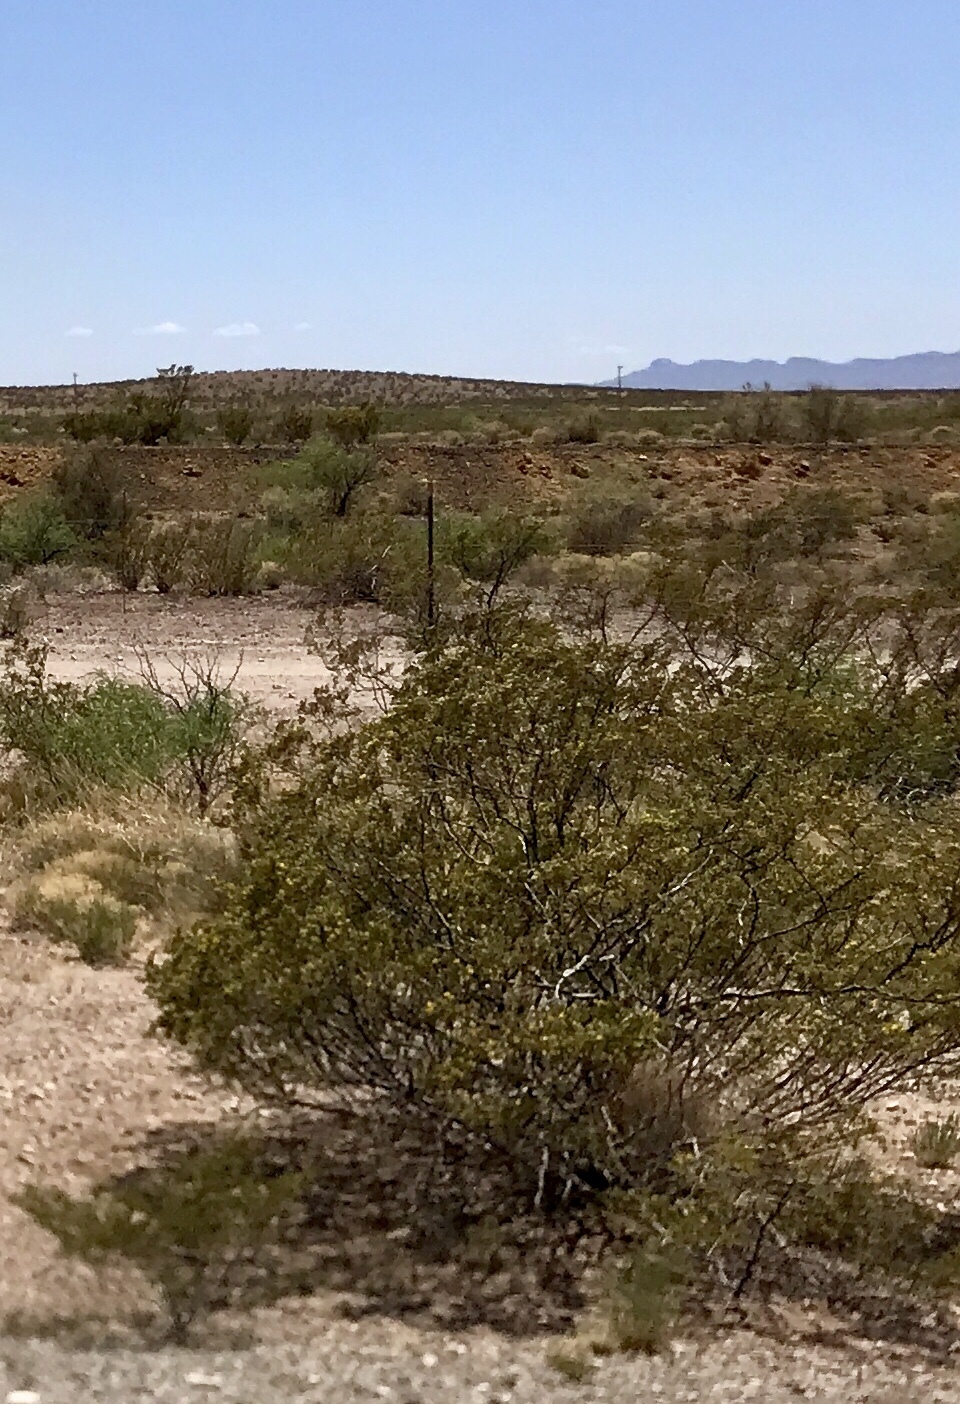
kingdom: Plantae
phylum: Tracheophyta
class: Magnoliopsida
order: Zygophyllales
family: Zygophyllaceae
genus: Larrea
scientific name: Larrea tridentata
